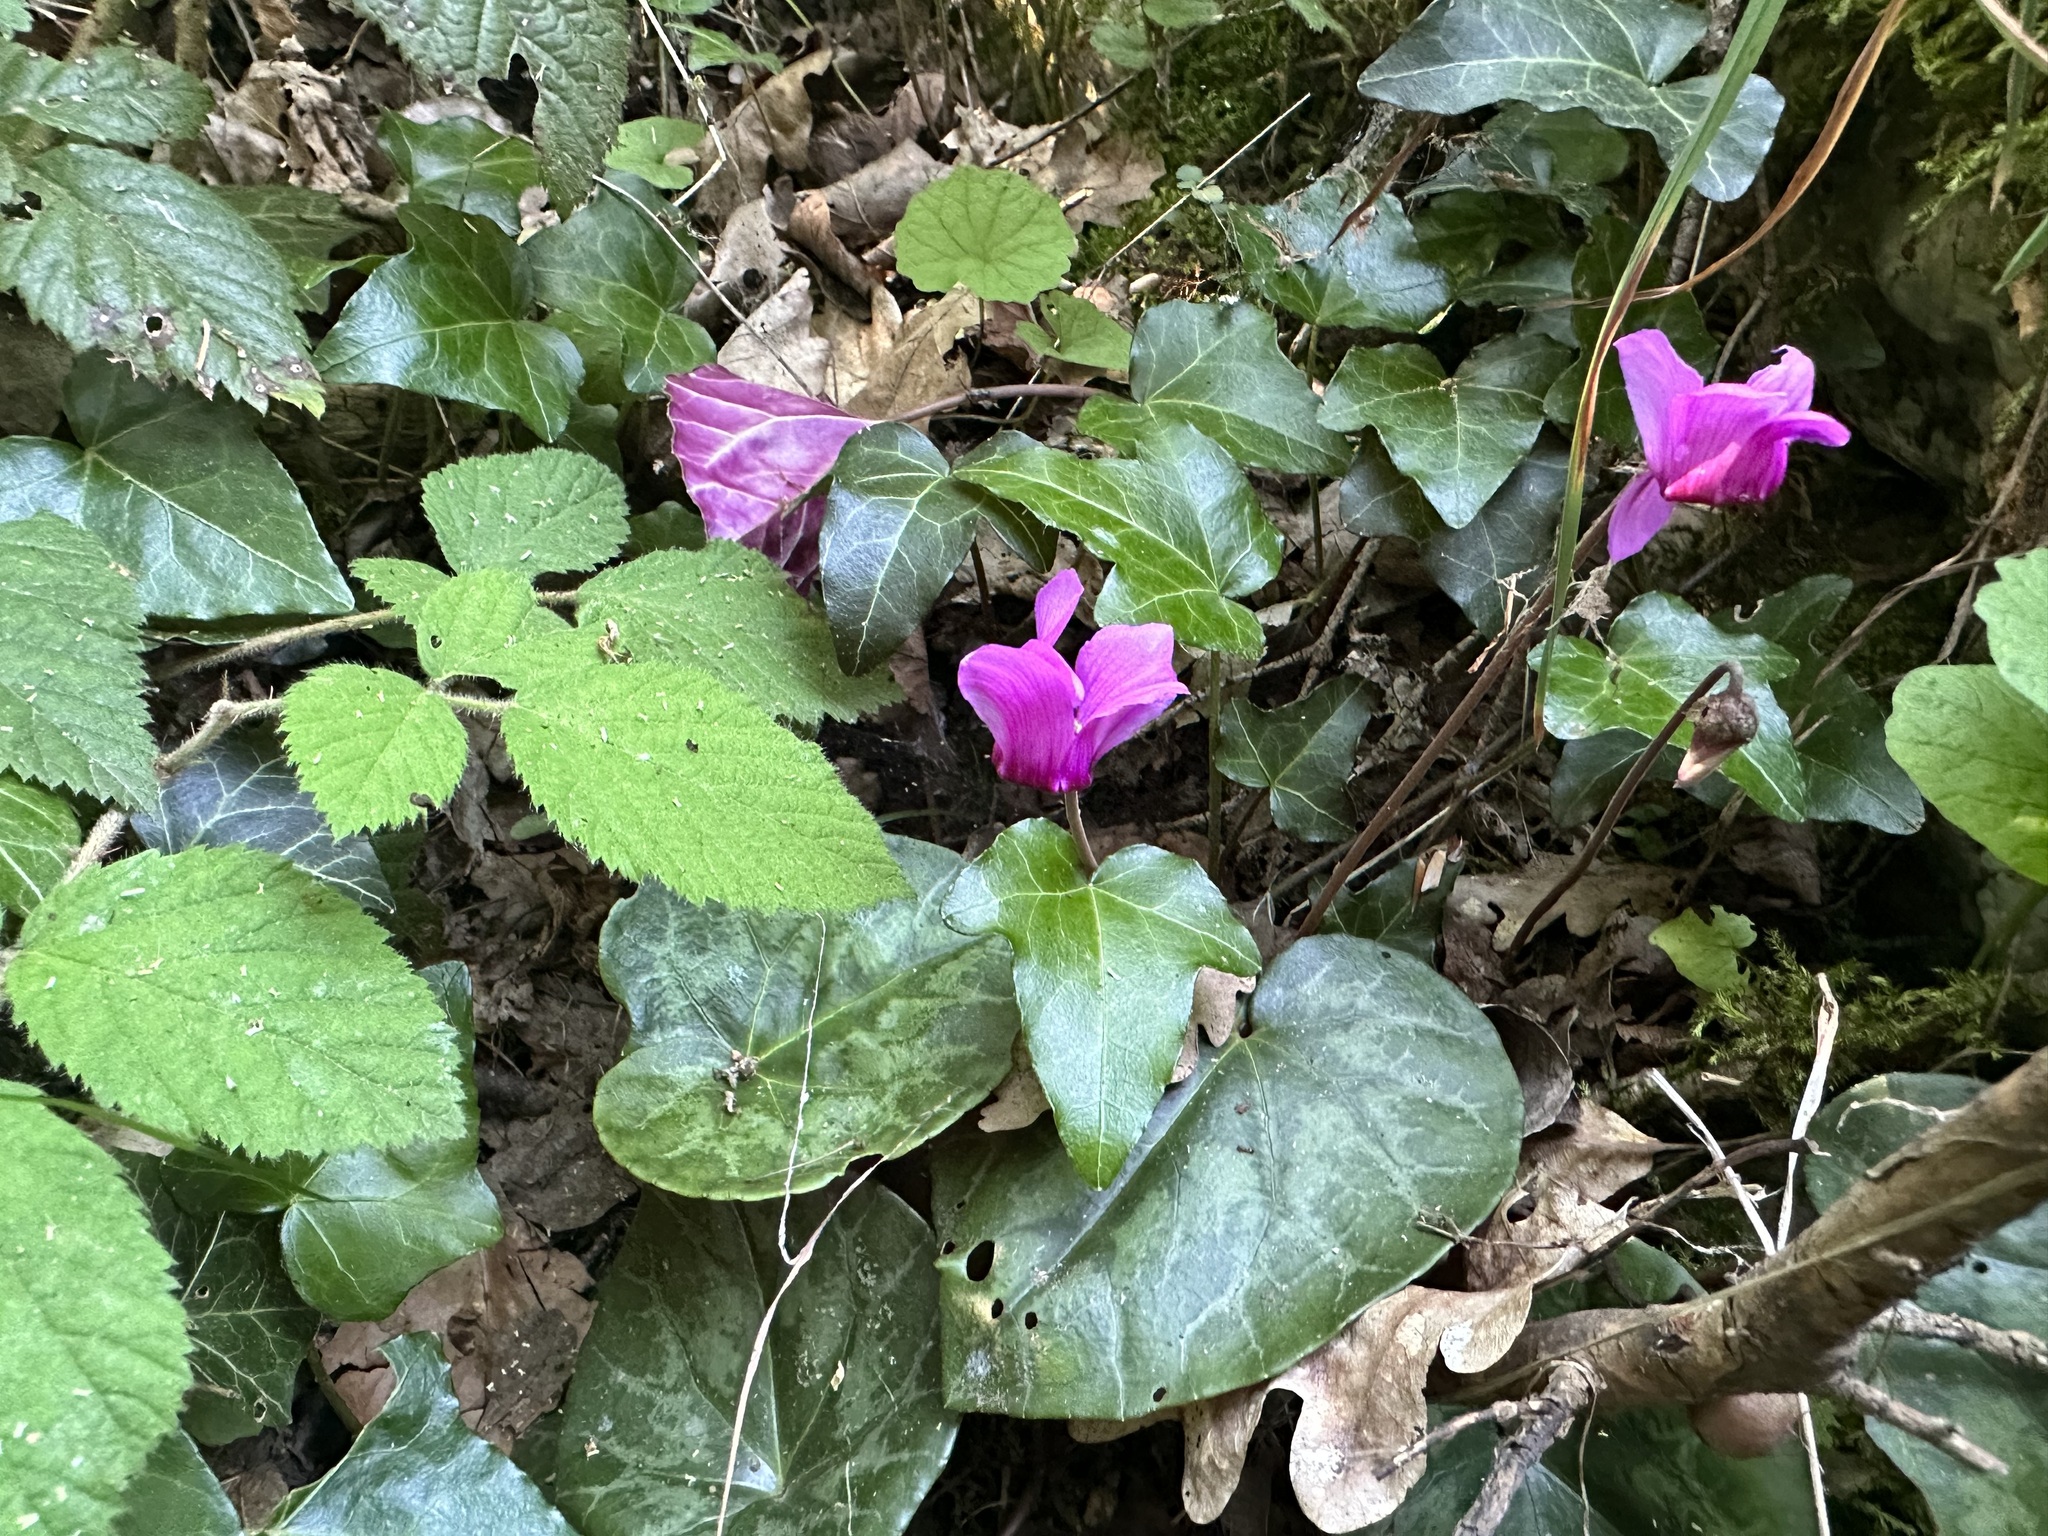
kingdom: Plantae
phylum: Tracheophyta
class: Magnoliopsida
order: Ericales
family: Primulaceae
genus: Cyclamen
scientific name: Cyclamen purpurascens
